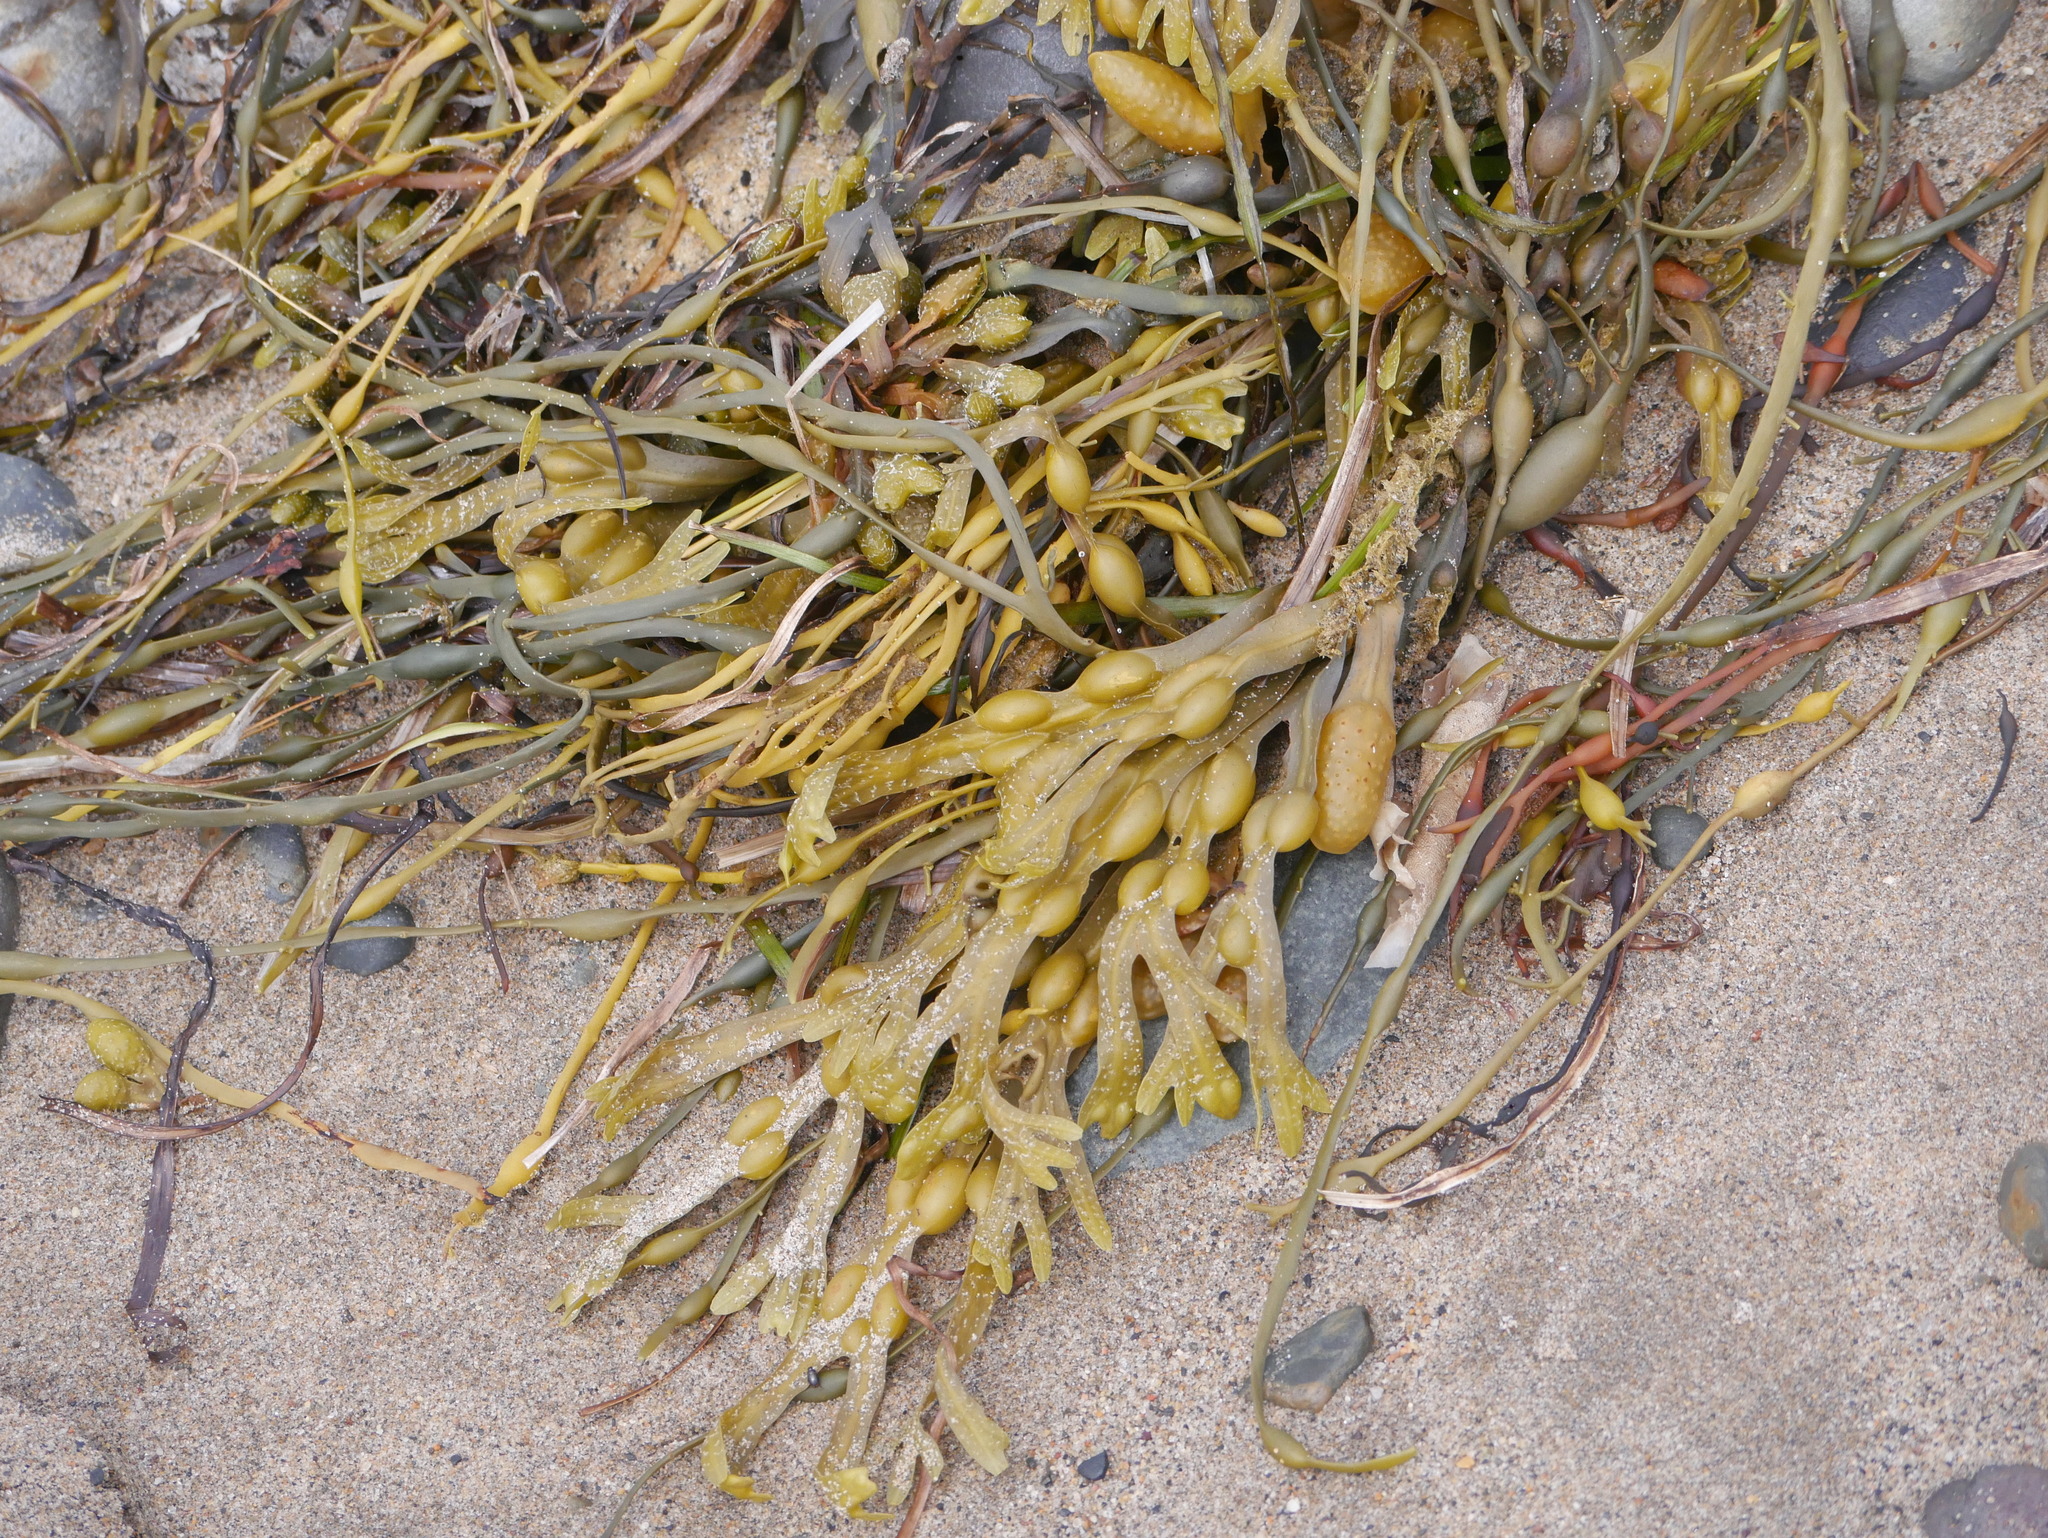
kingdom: Chromista
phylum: Ochrophyta
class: Phaeophyceae
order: Fucales
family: Fucaceae
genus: Fucus
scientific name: Fucus vesiculosus
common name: Bladder wrack
